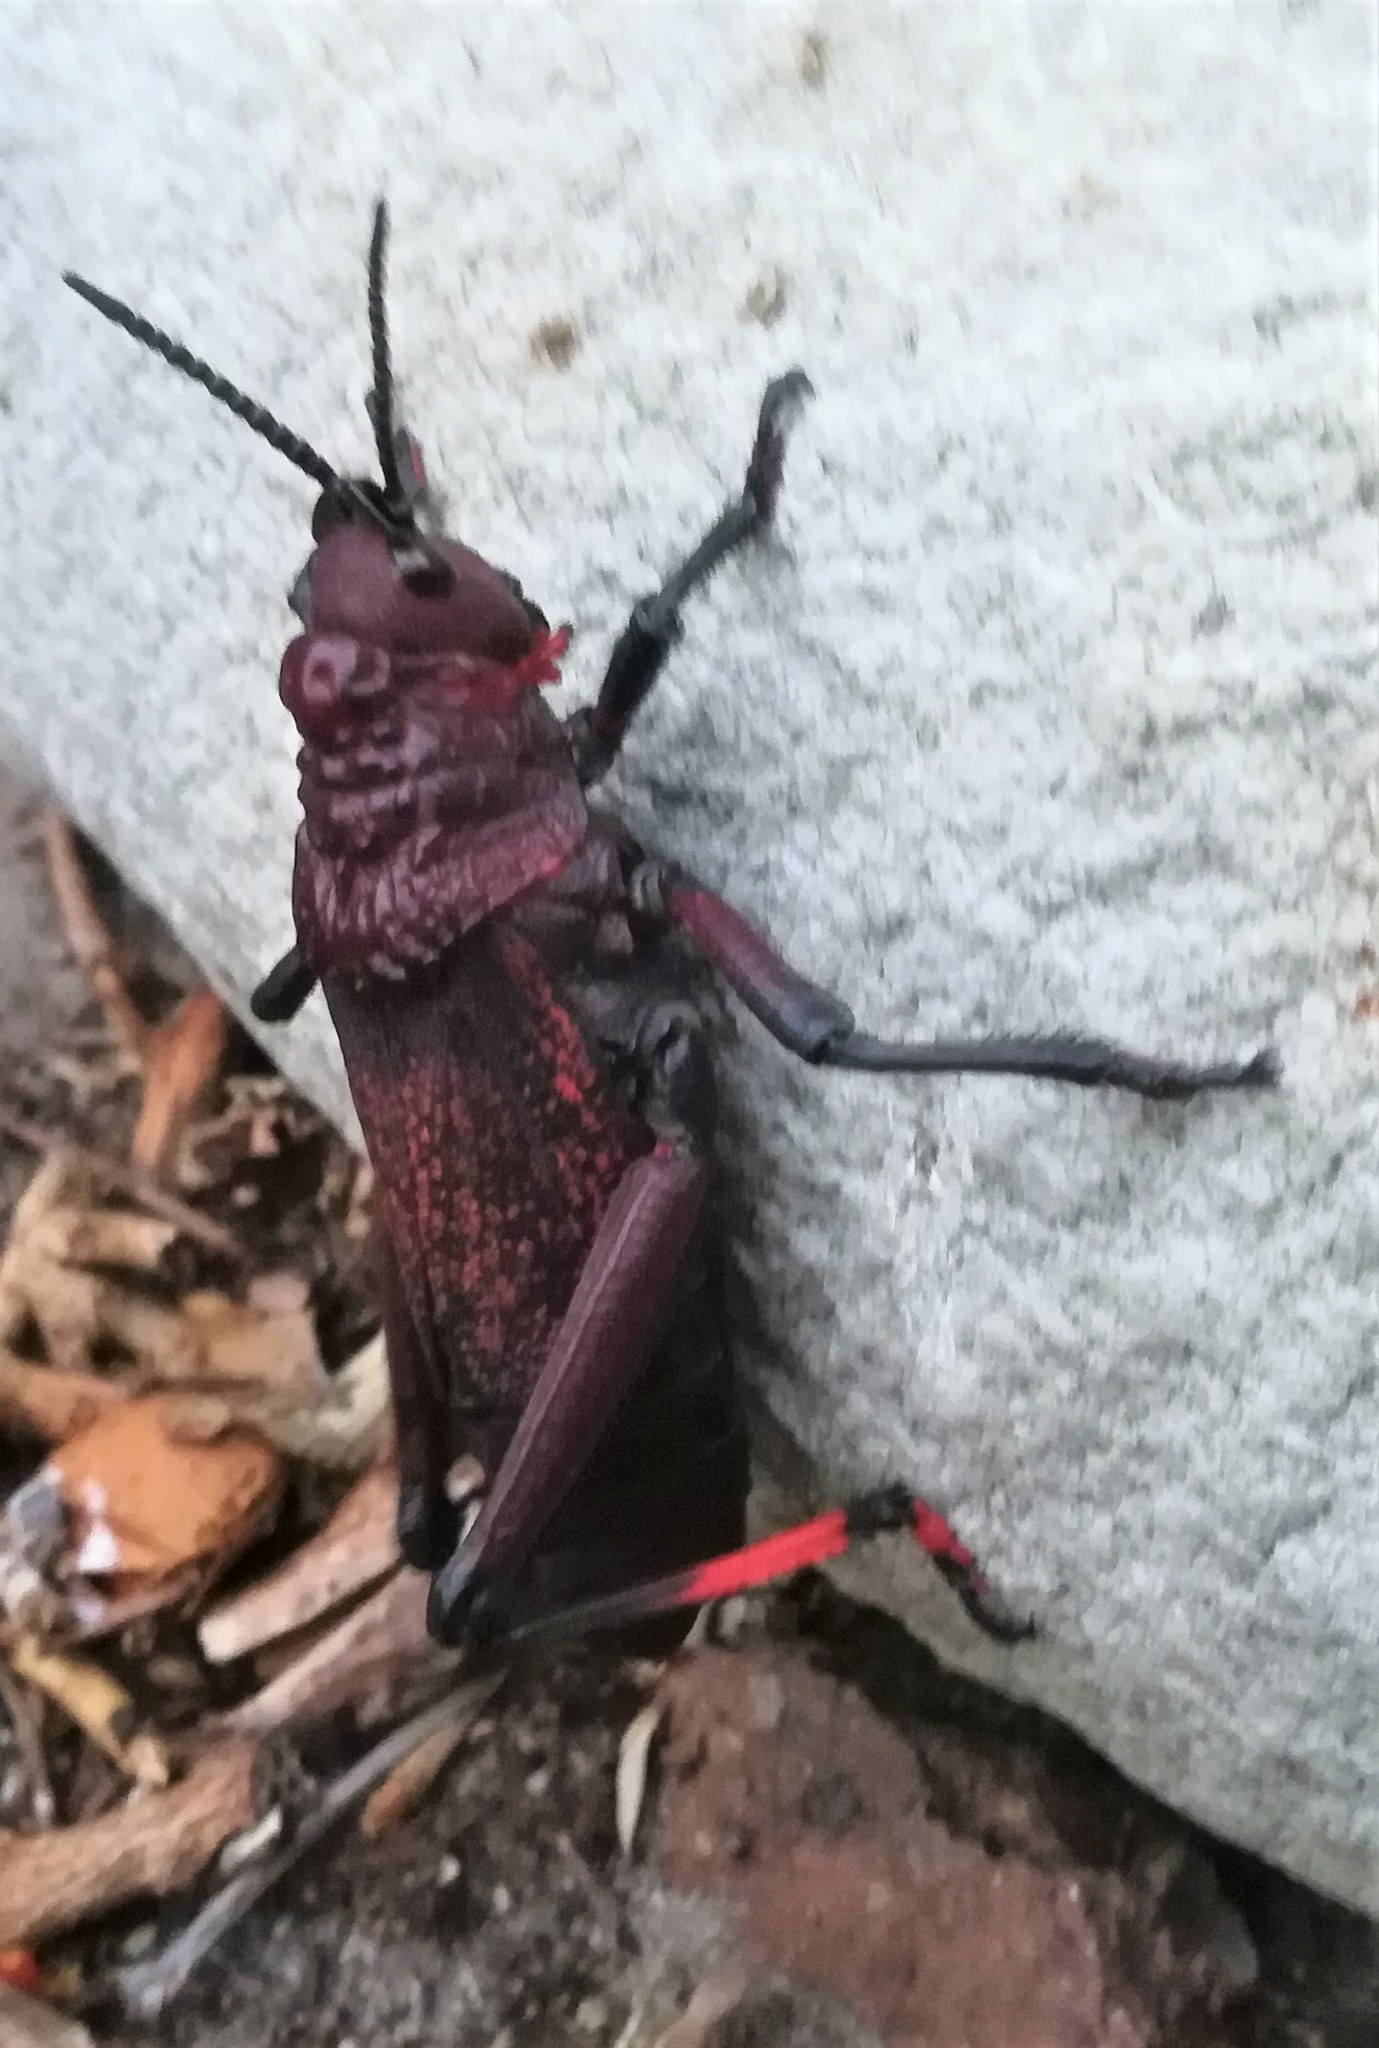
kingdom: Animalia
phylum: Arthropoda
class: Insecta
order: Orthoptera
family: Pyrgomorphidae
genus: Dictyophorus
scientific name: Dictyophorus spumans
